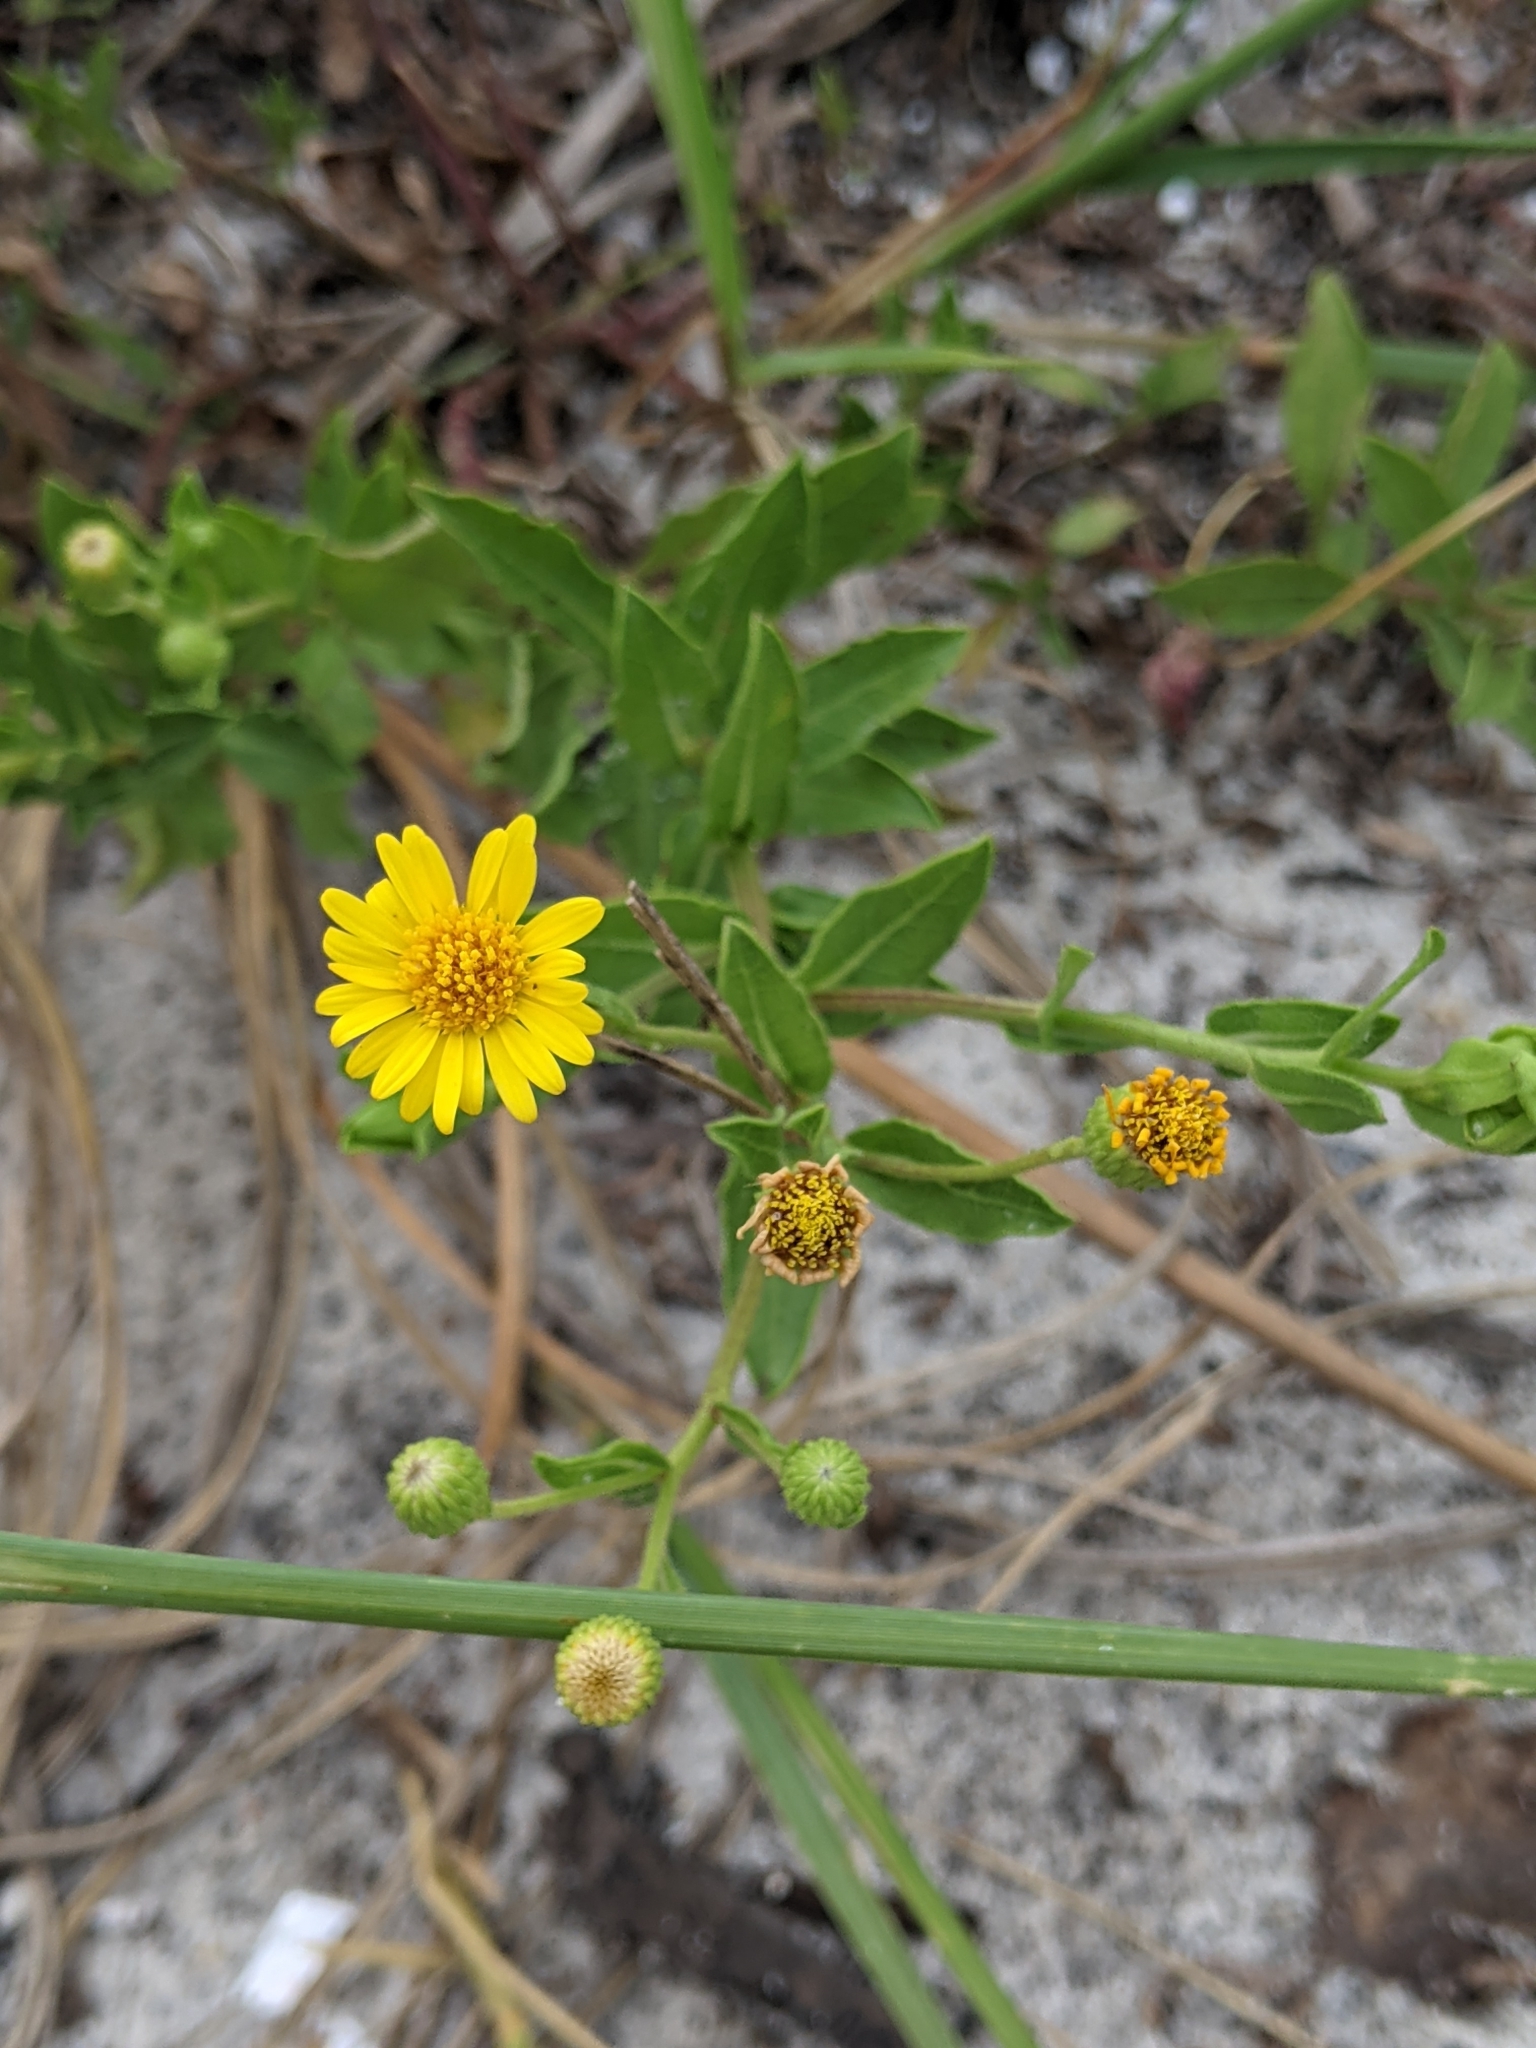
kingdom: Plantae
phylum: Tracheophyta
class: Magnoliopsida
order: Asterales
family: Asteraceae
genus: Heterotheca
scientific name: Heterotheca subaxillaris
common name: Camphorweed
